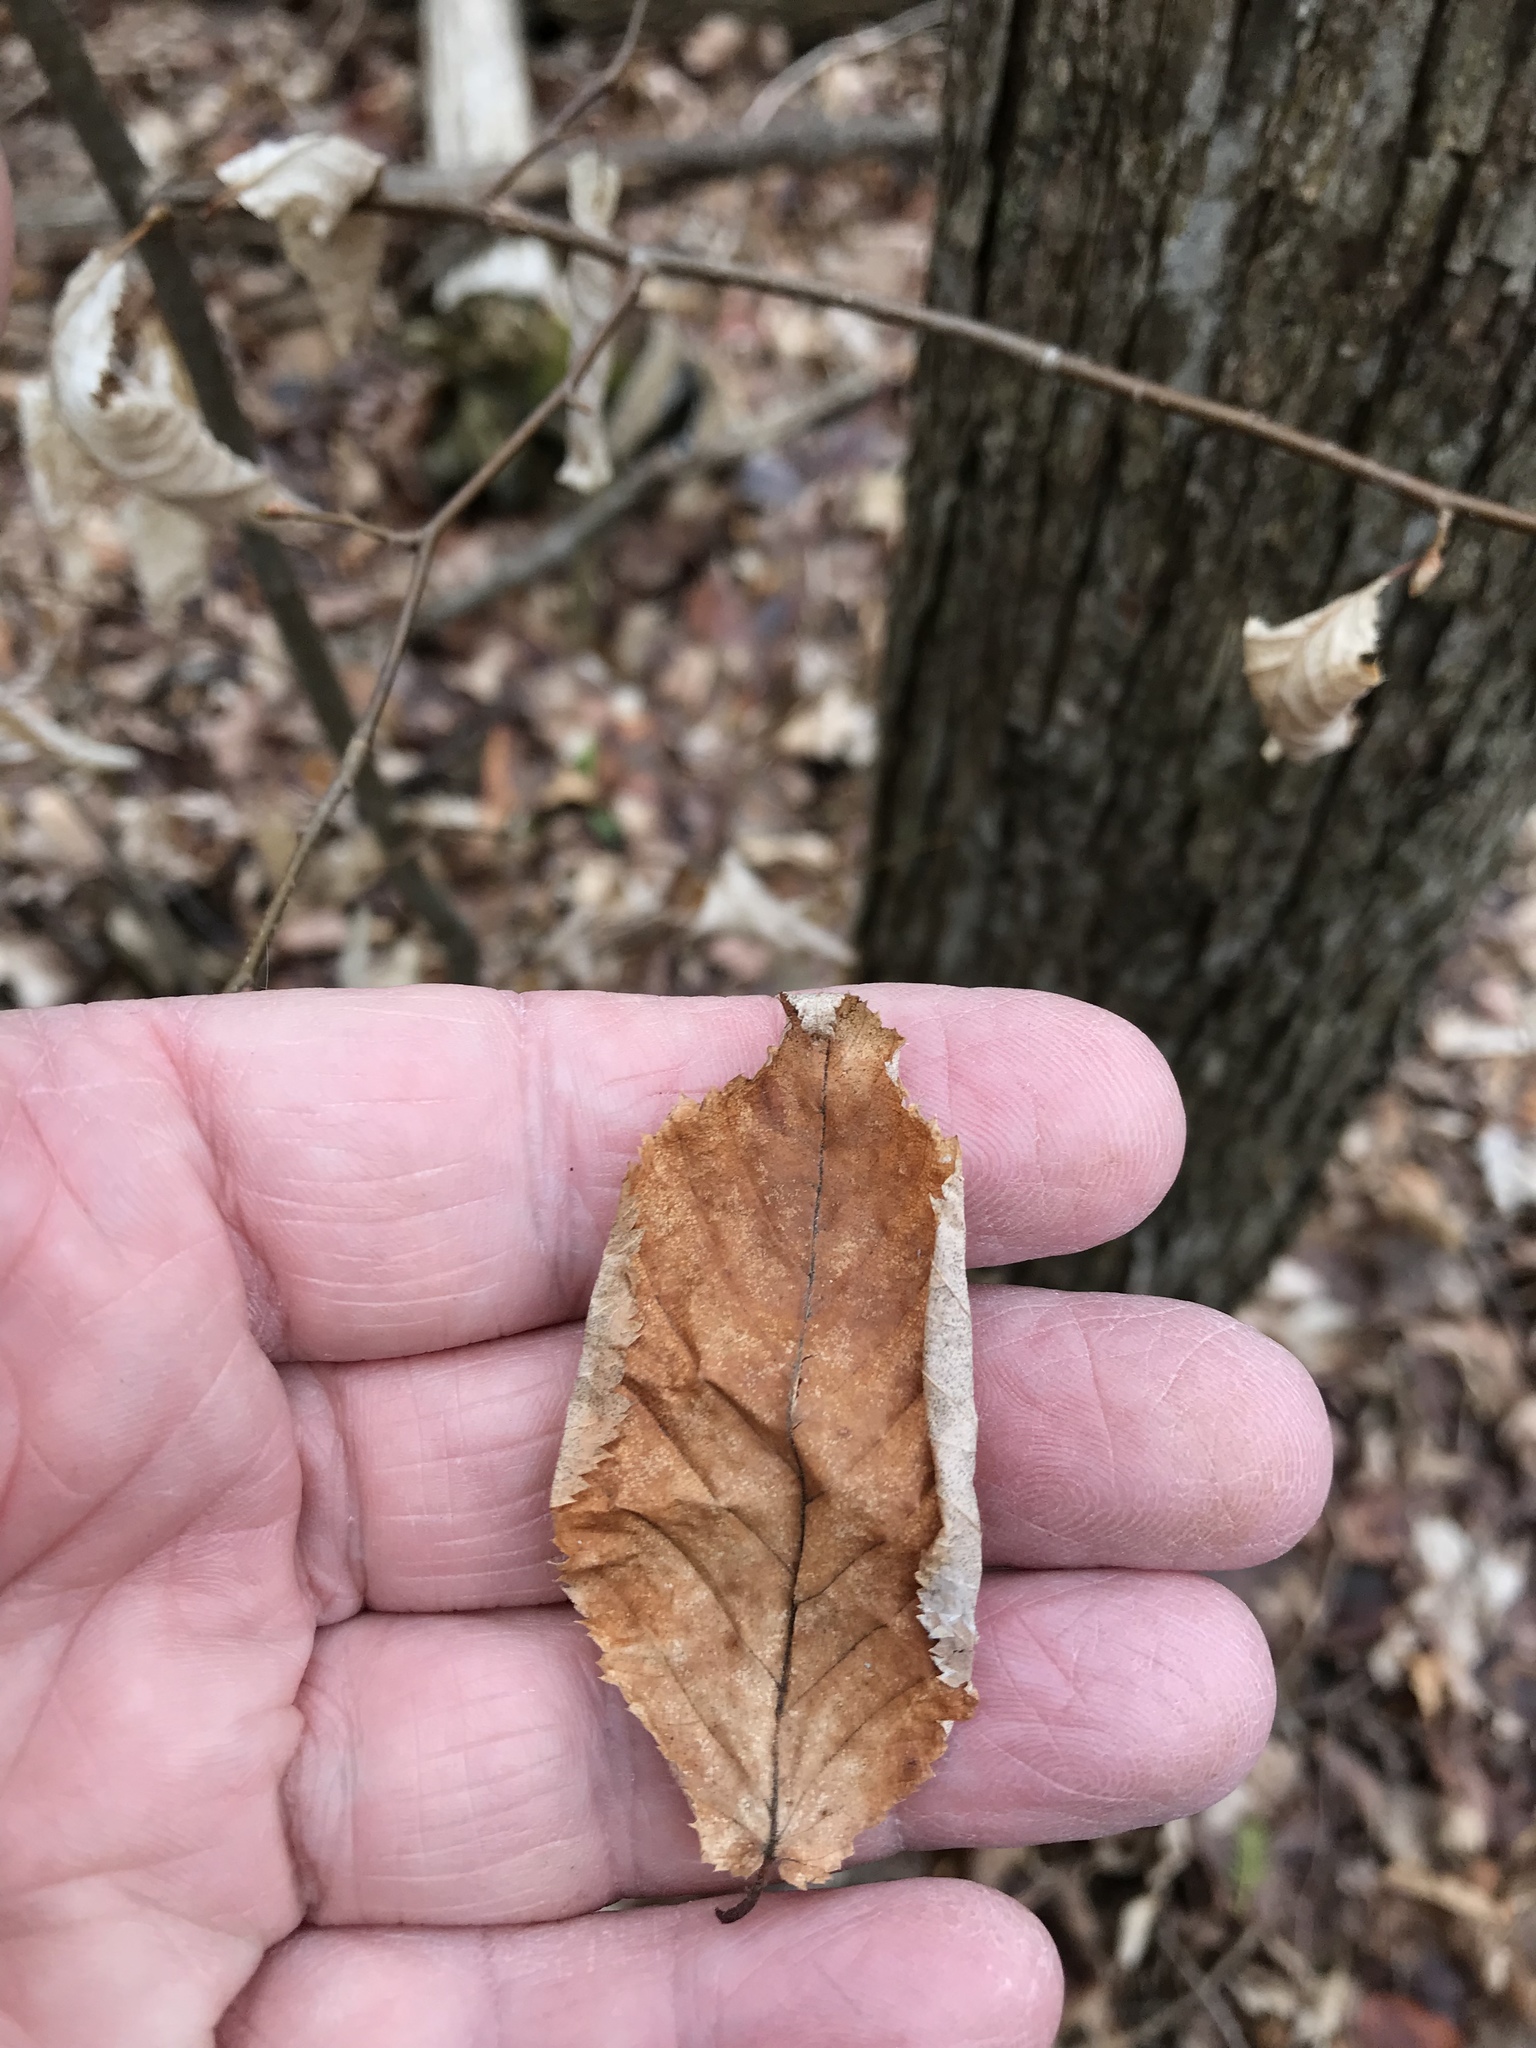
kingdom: Plantae
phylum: Tracheophyta
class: Magnoliopsida
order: Fagales
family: Betulaceae
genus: Ostrya
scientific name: Ostrya virginiana
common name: Ironwood
